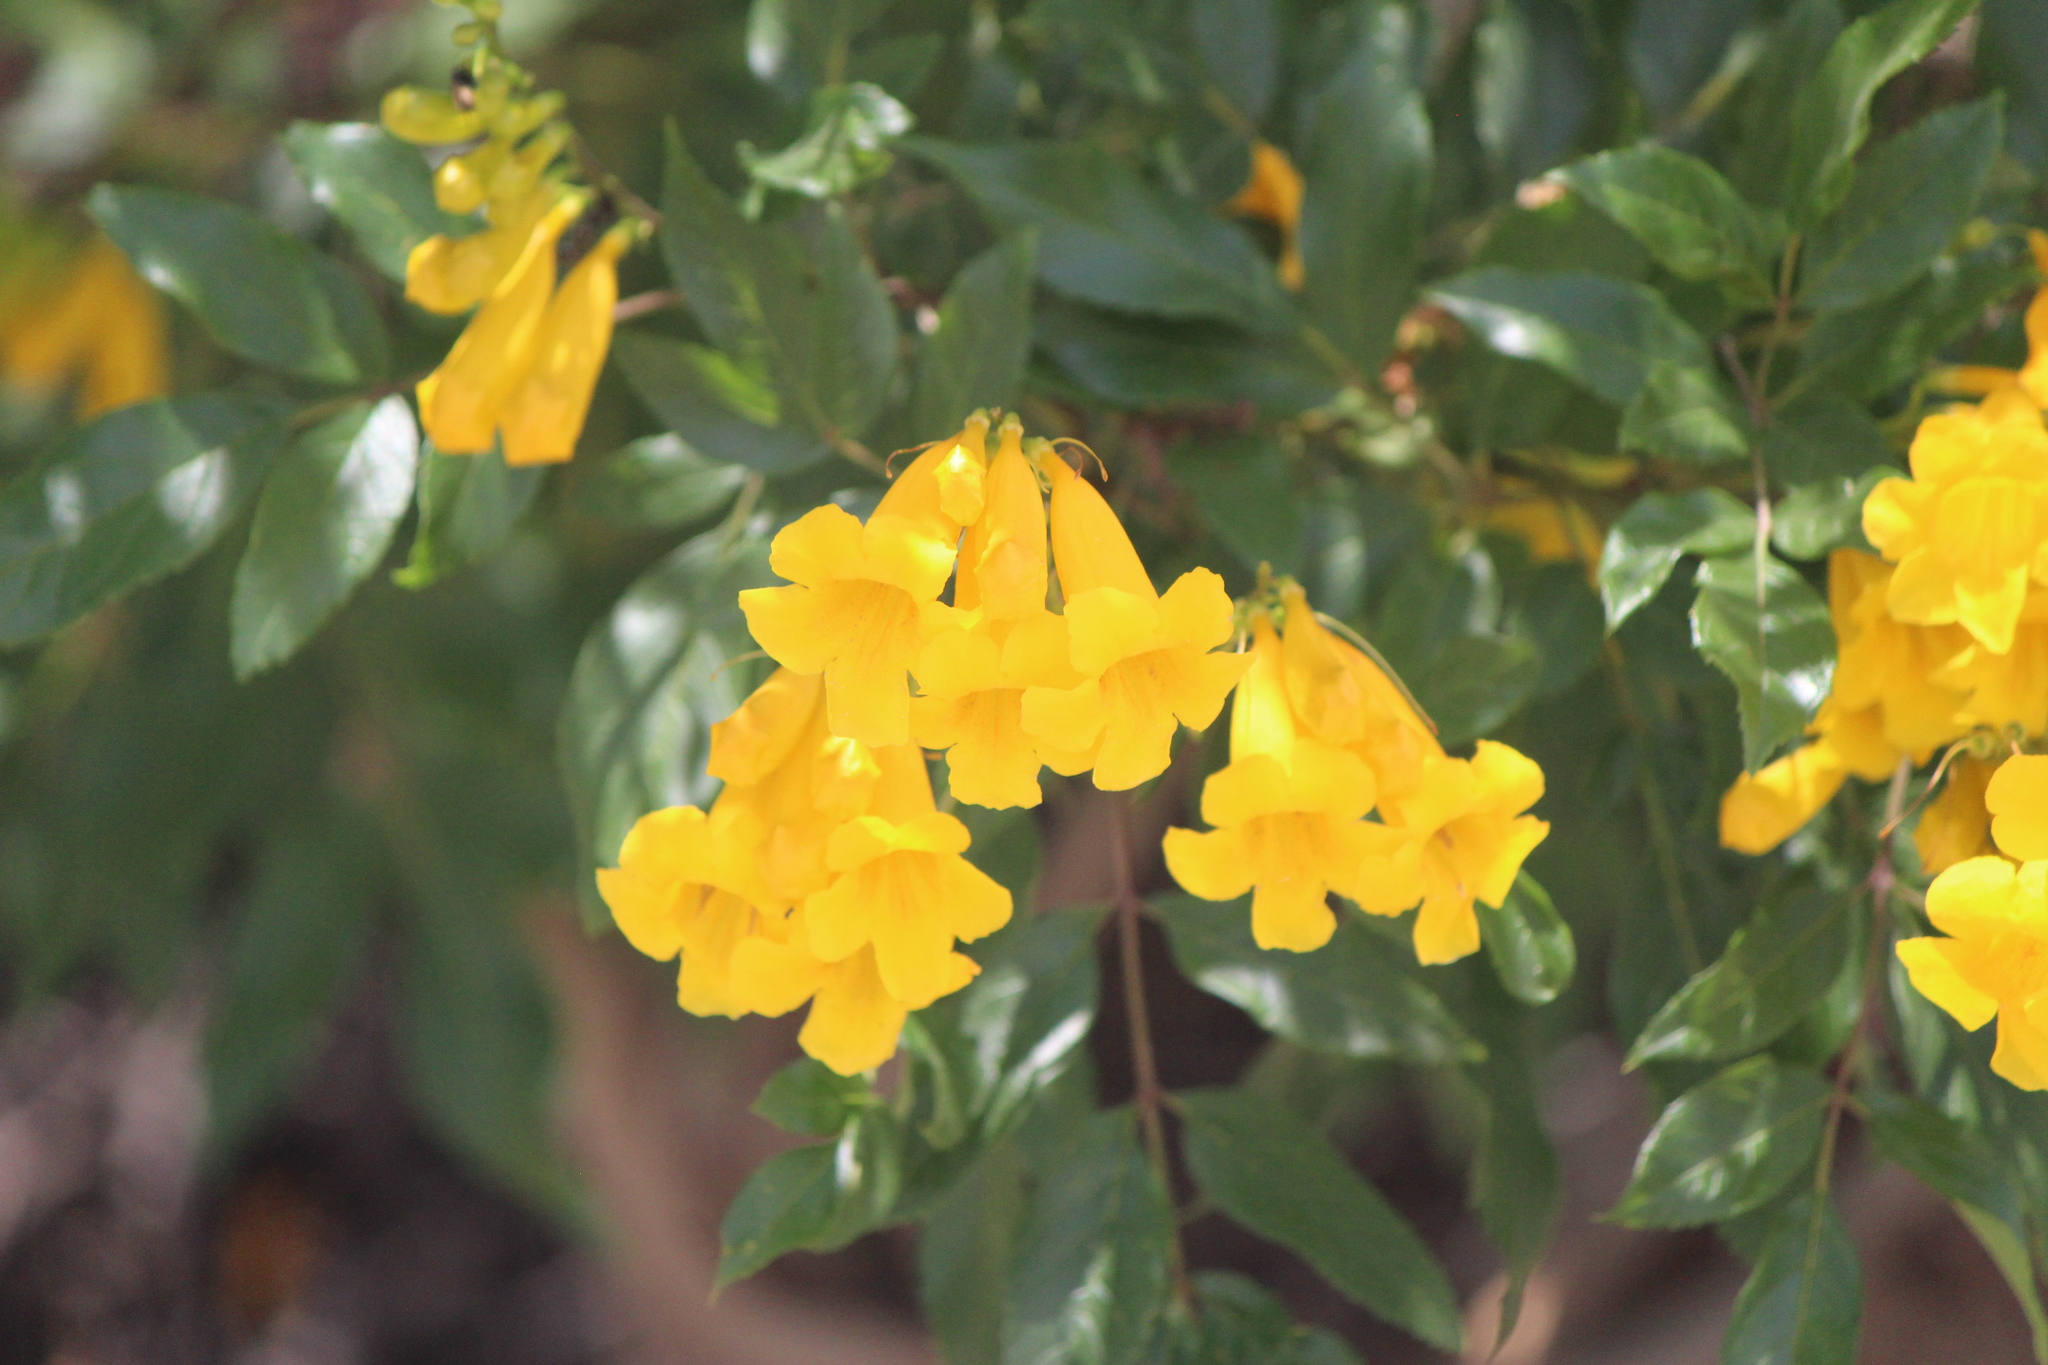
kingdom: Plantae
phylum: Tracheophyta
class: Magnoliopsida
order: Lamiales
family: Bignoniaceae
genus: Tecoma
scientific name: Tecoma stans
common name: Yellow trumpetbush
